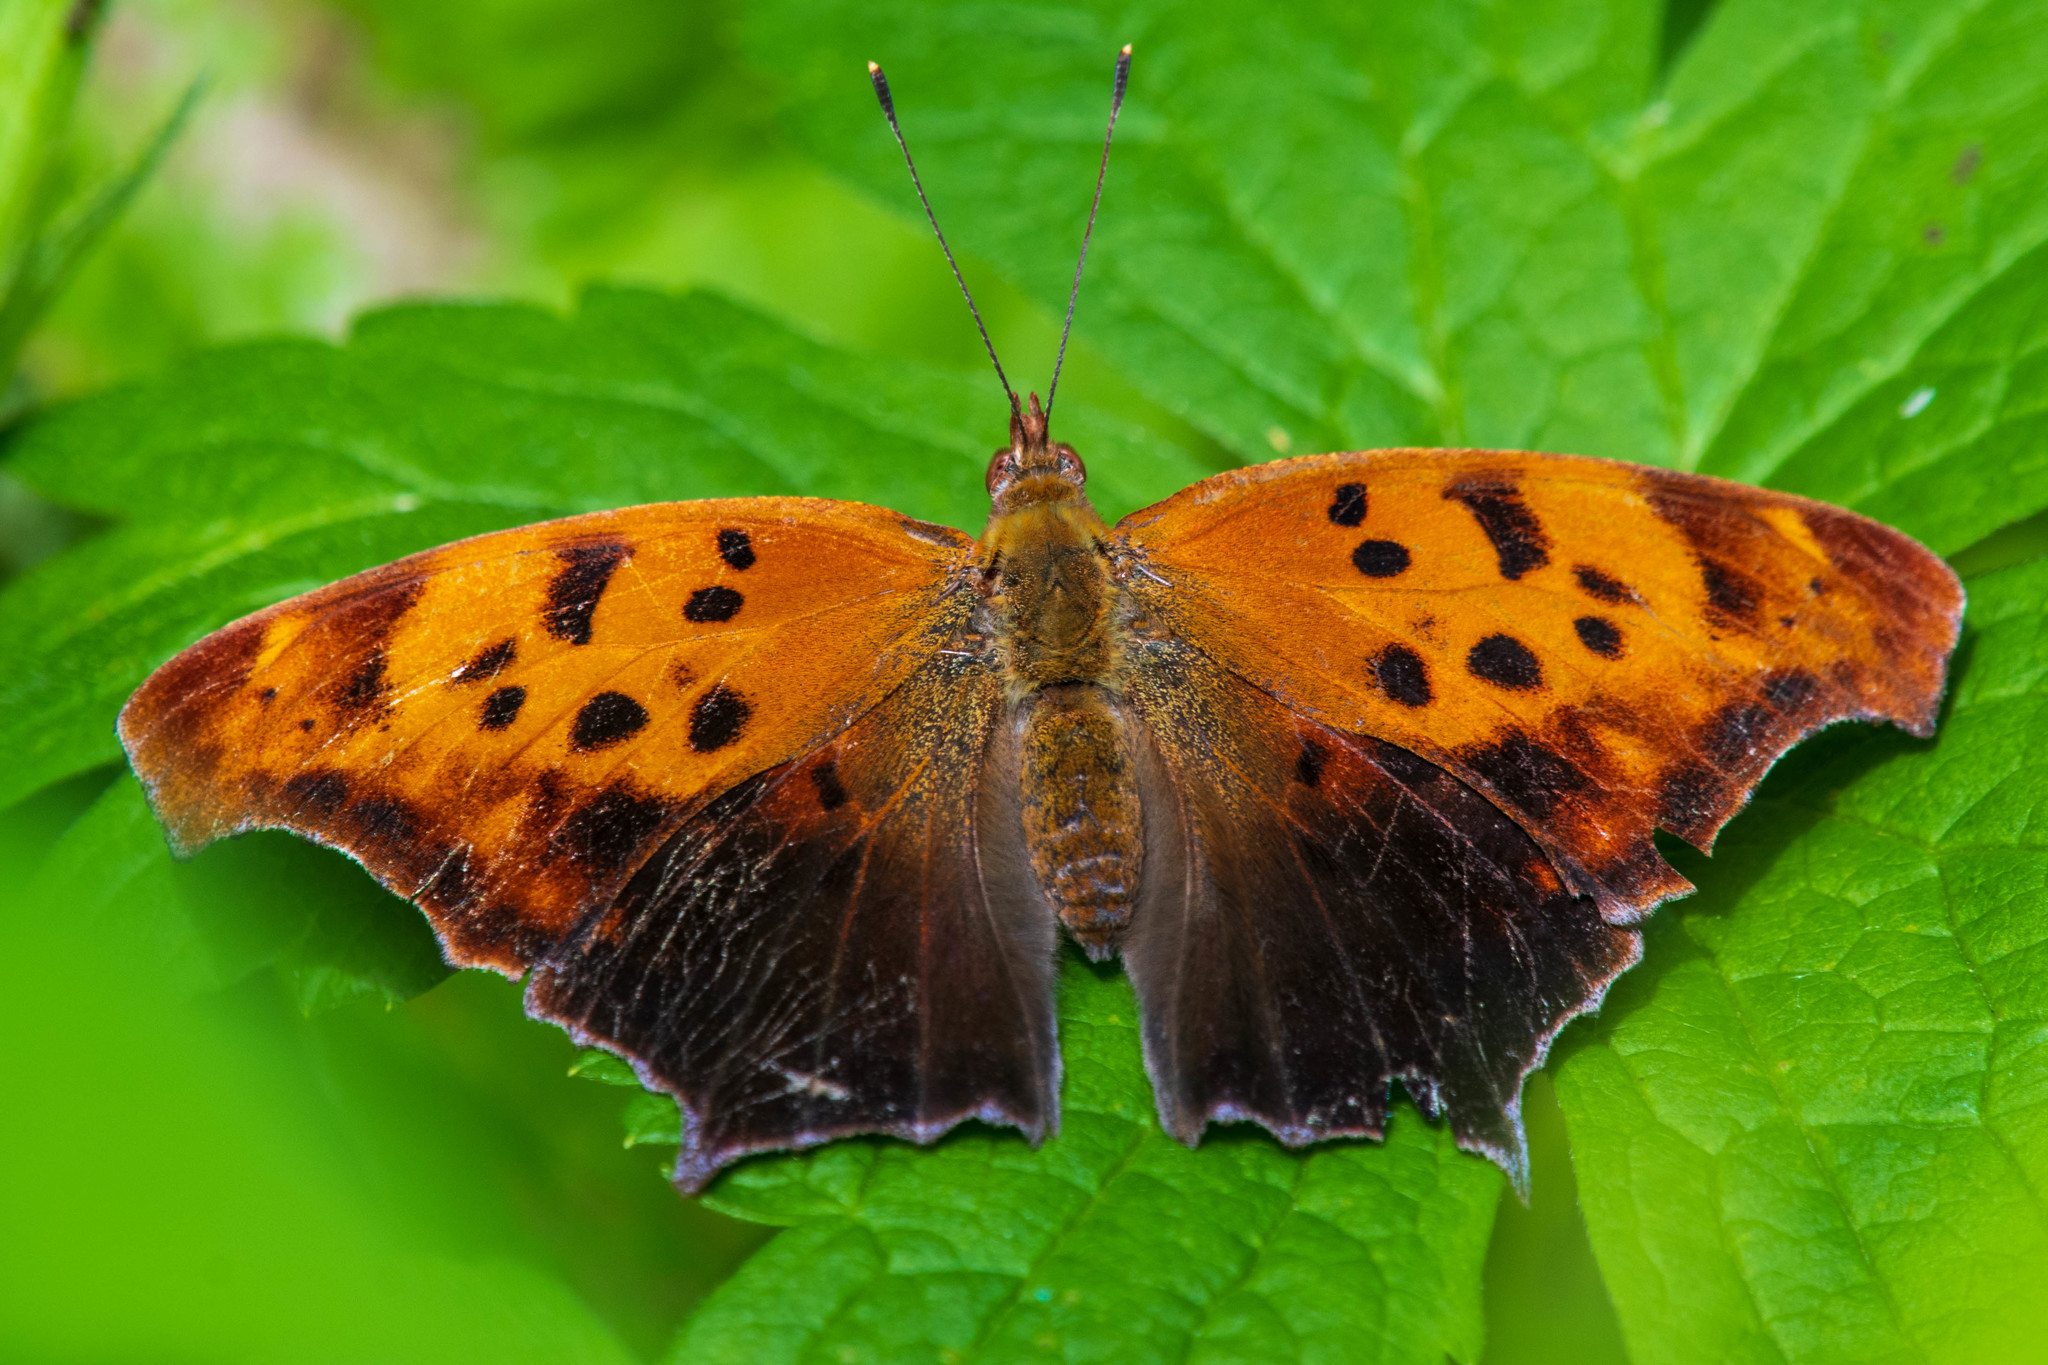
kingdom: Animalia
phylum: Arthropoda
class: Insecta
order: Lepidoptera
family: Nymphalidae
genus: Polygonia
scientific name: Polygonia interrogationis
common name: Question mark
